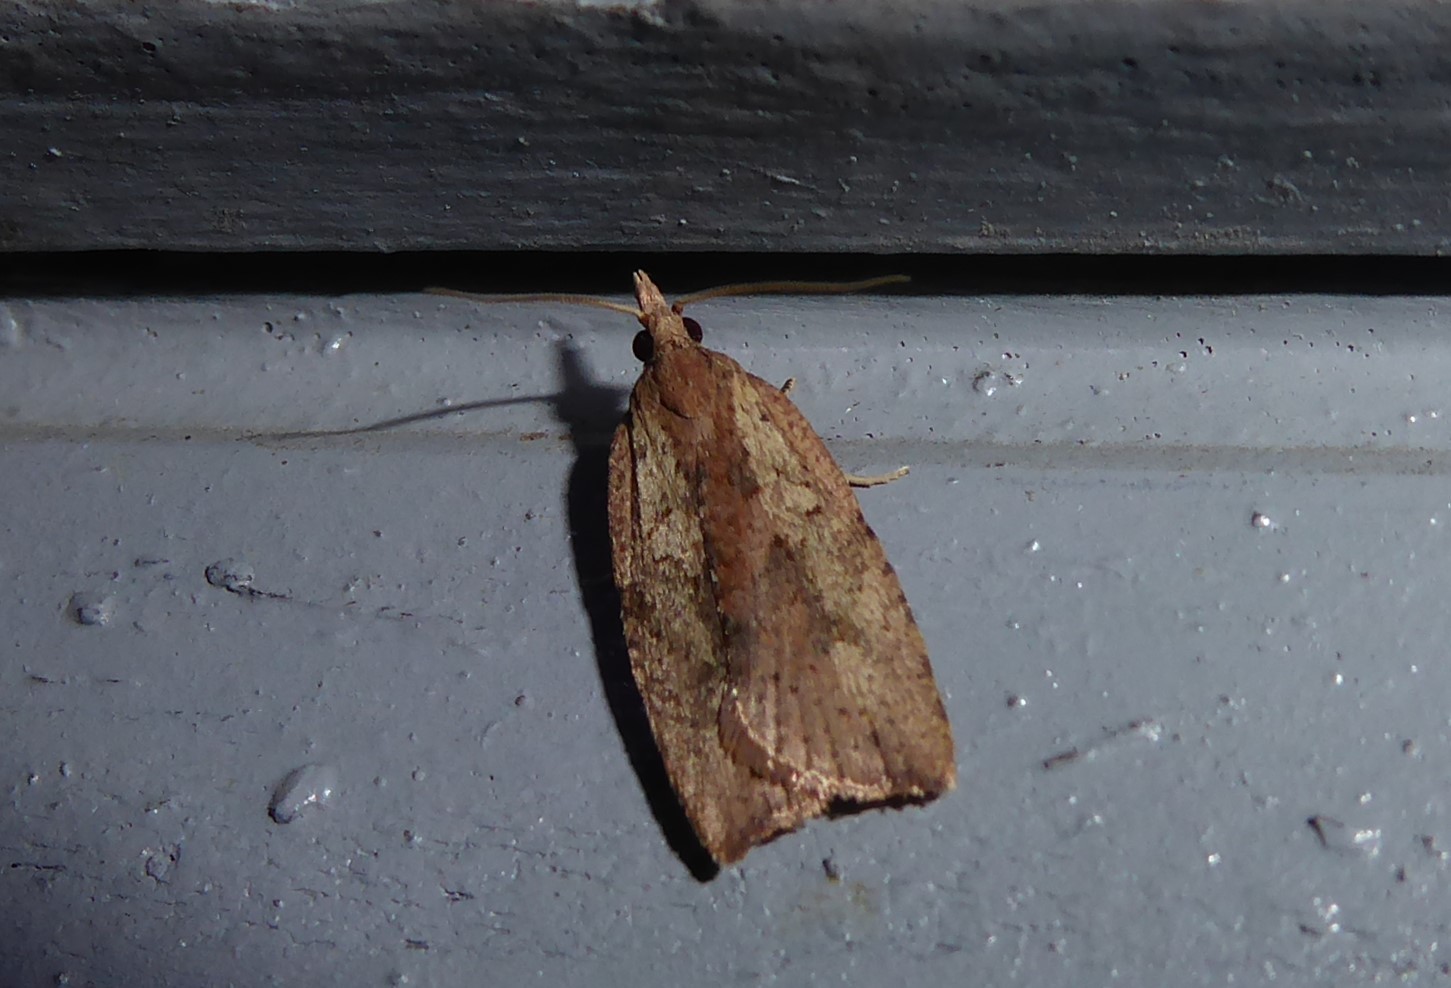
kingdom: Animalia
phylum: Arthropoda
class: Insecta
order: Lepidoptera
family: Tortricidae
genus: Planotortrix
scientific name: Planotortrix notophaea
